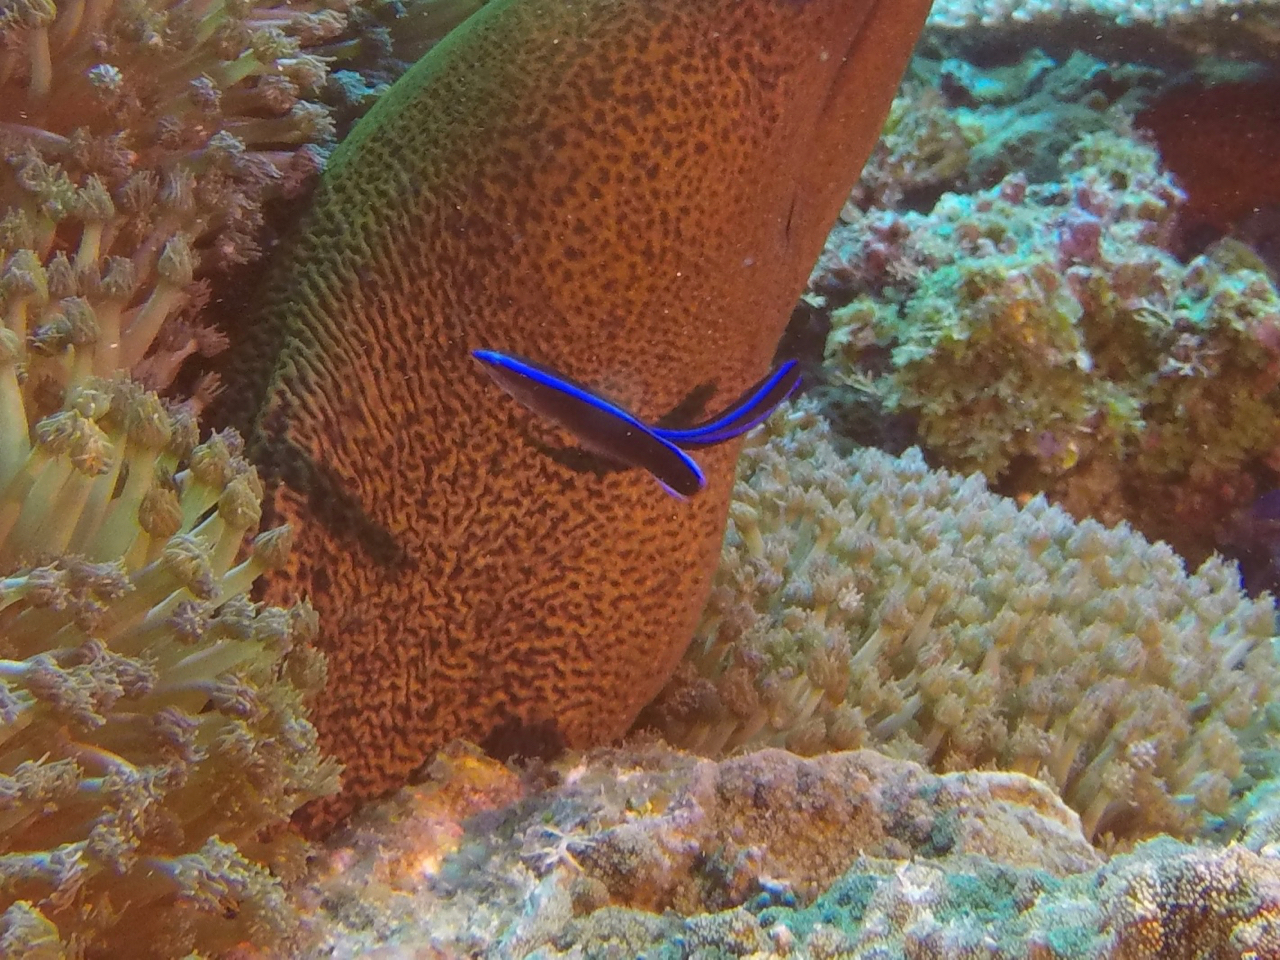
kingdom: Animalia
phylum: Chordata
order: Perciformes
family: Labridae
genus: Labroides
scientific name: Labroides dimidiatus
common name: Blue diesel wrasse
